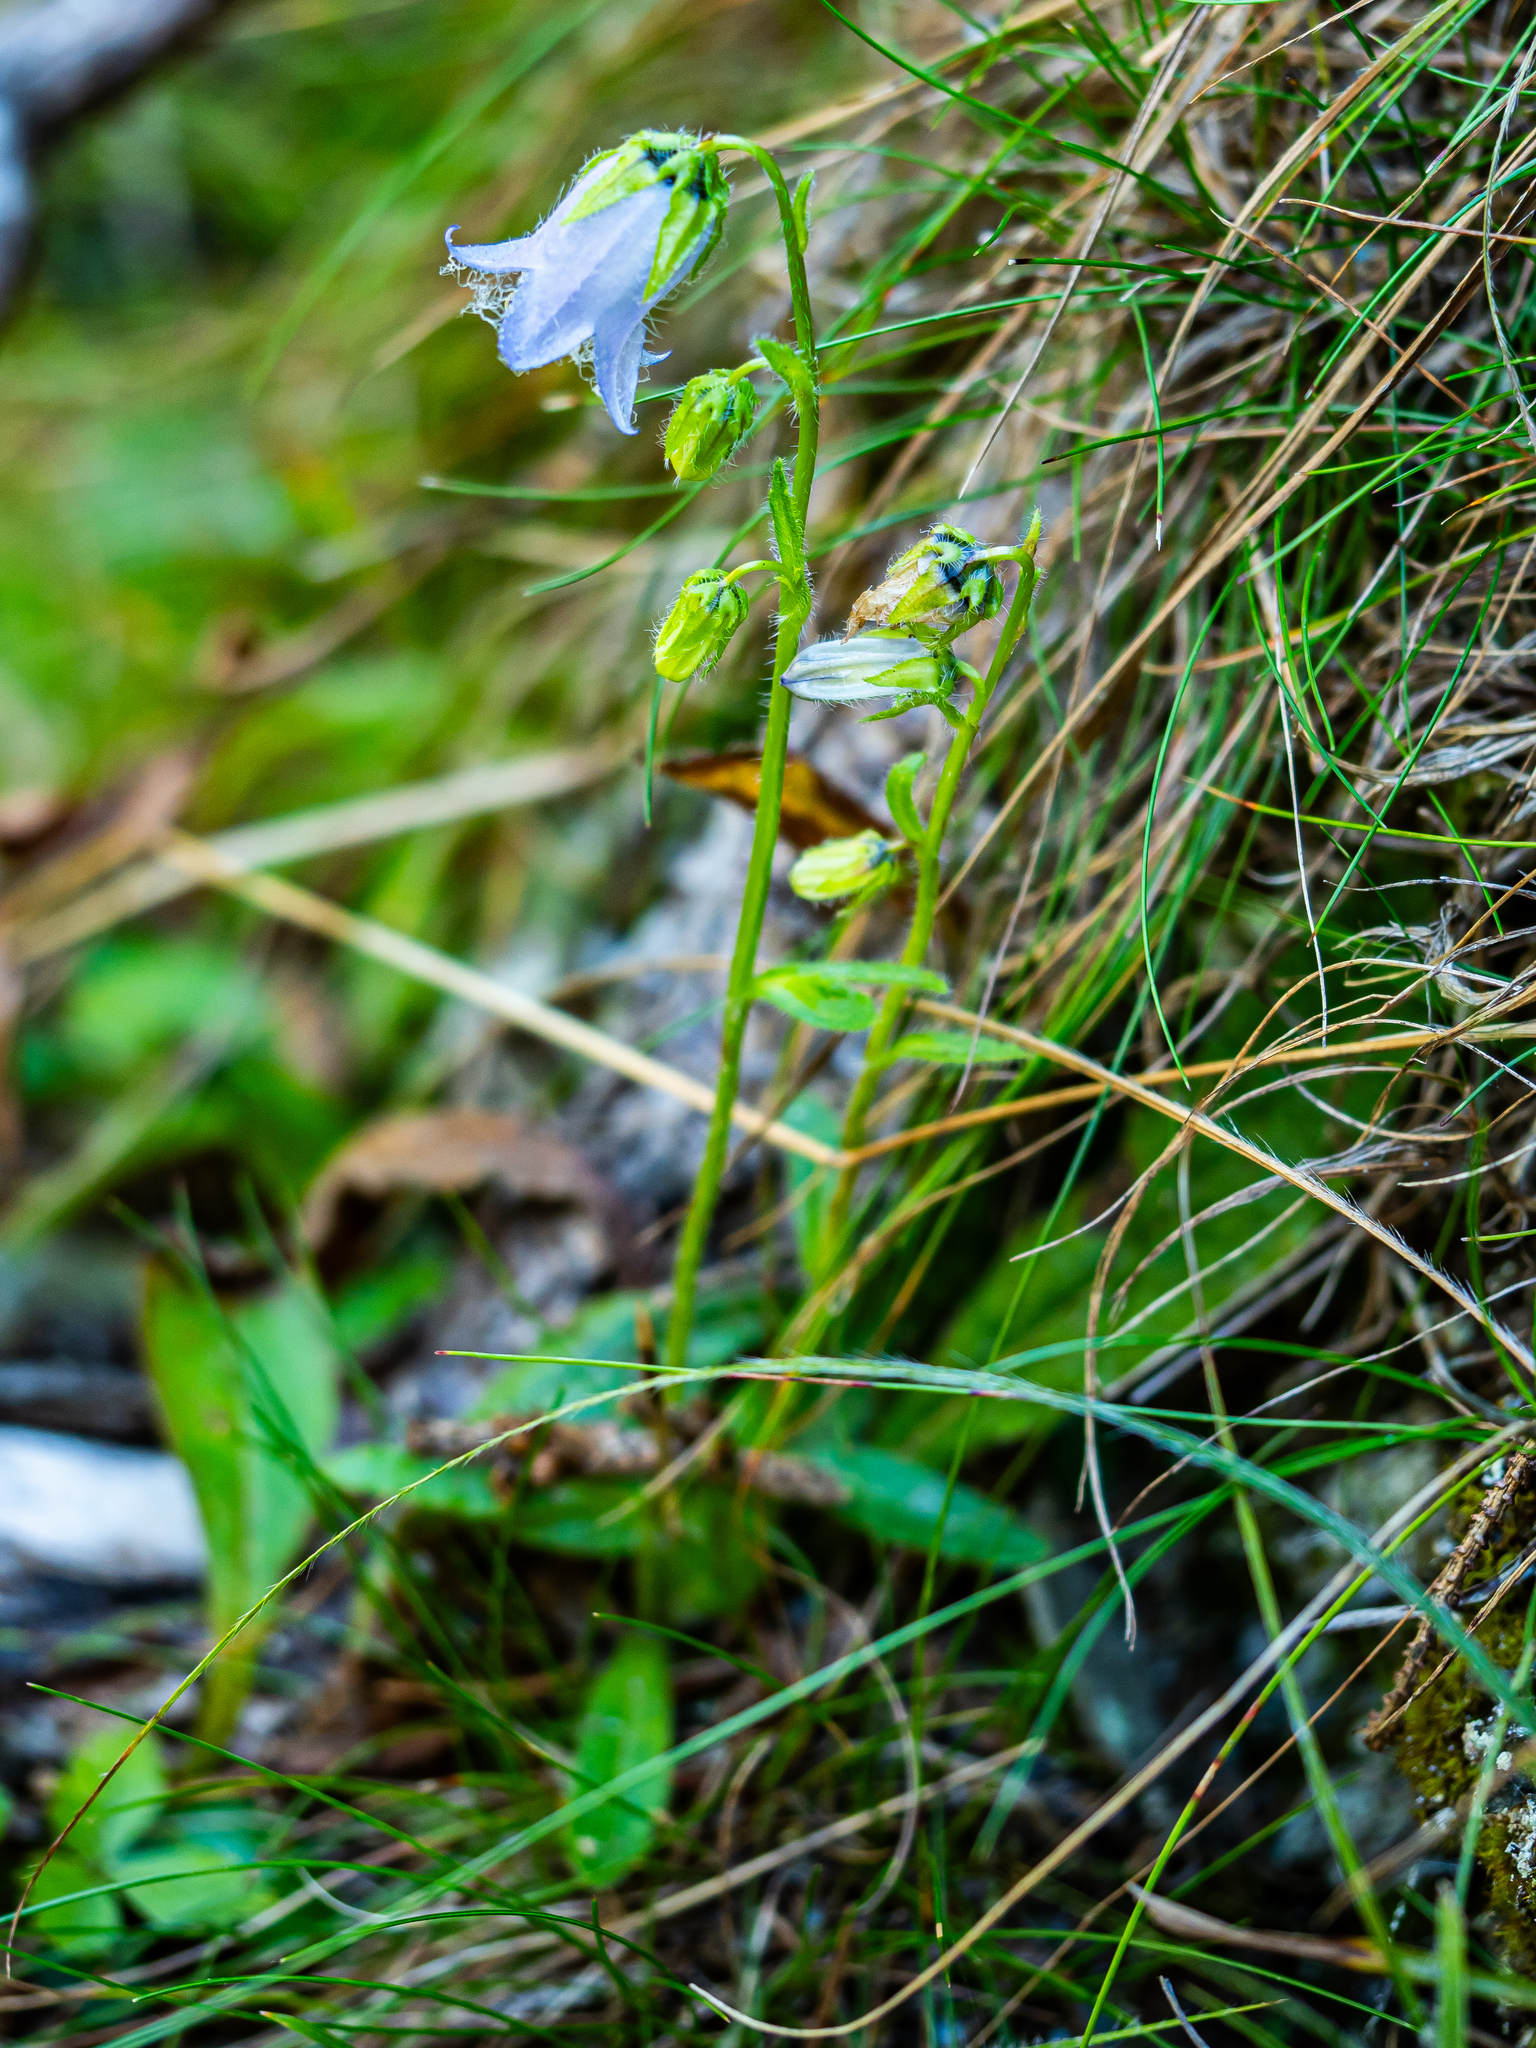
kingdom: Plantae
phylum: Tracheophyta
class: Magnoliopsida
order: Asterales
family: Campanulaceae
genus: Campanula
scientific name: Campanula barbata
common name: Bearded bellflower
